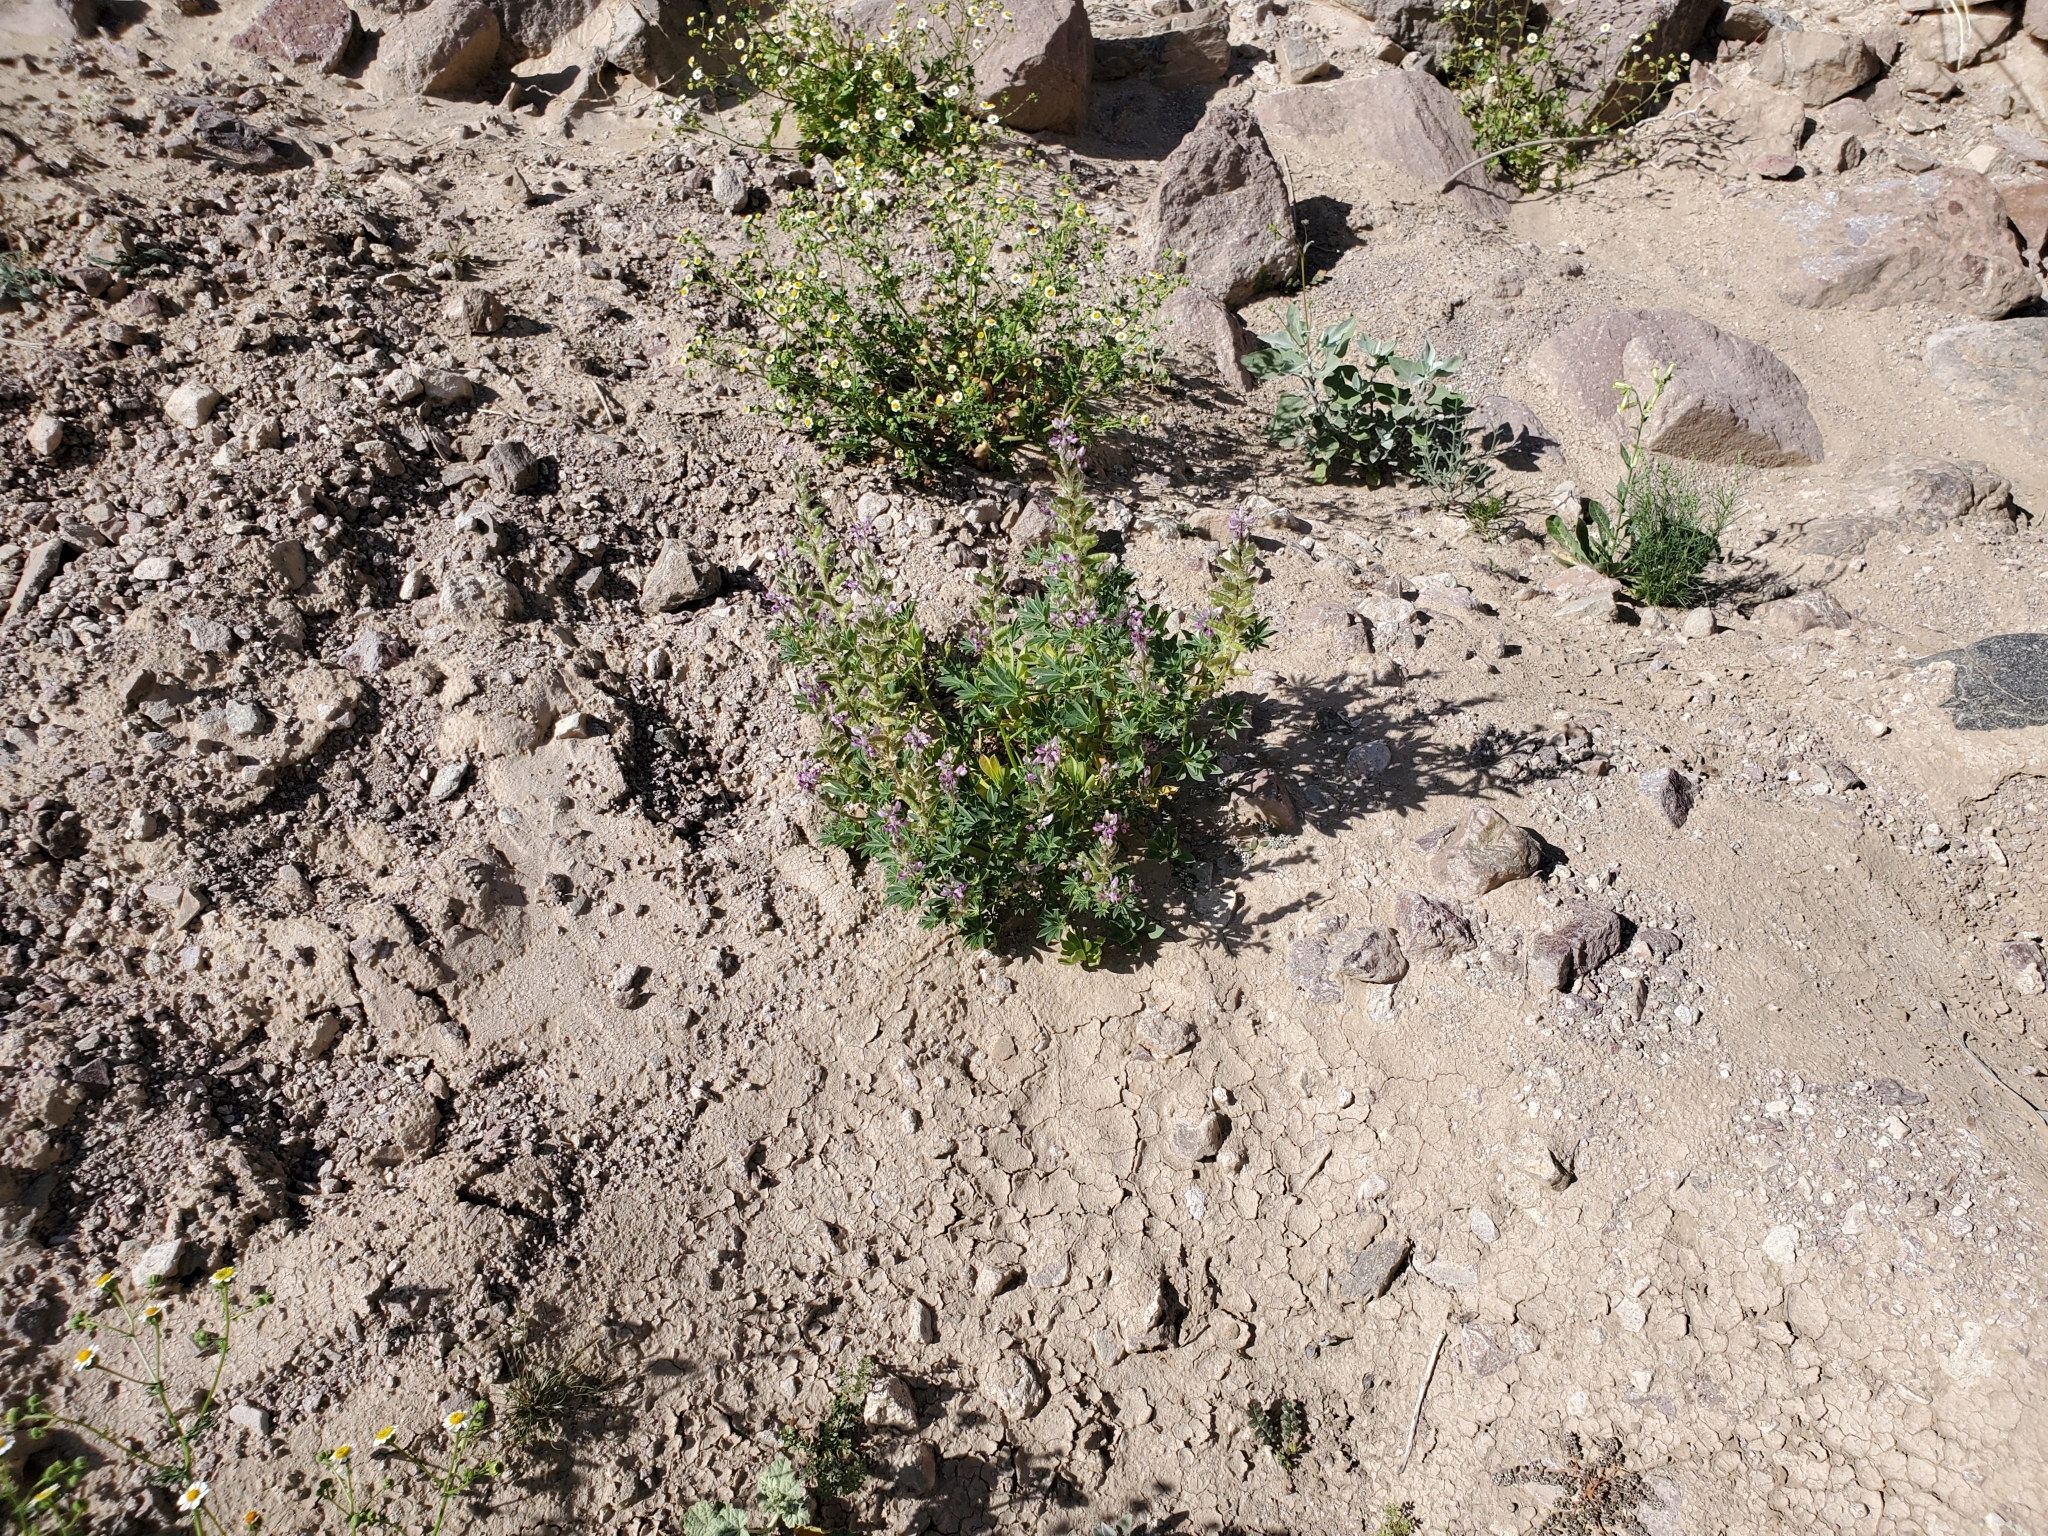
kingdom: Plantae
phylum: Tracheophyta
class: Magnoliopsida
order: Fabales
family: Fabaceae
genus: Lupinus
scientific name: Lupinus arizonicus
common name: Arizona lupine
